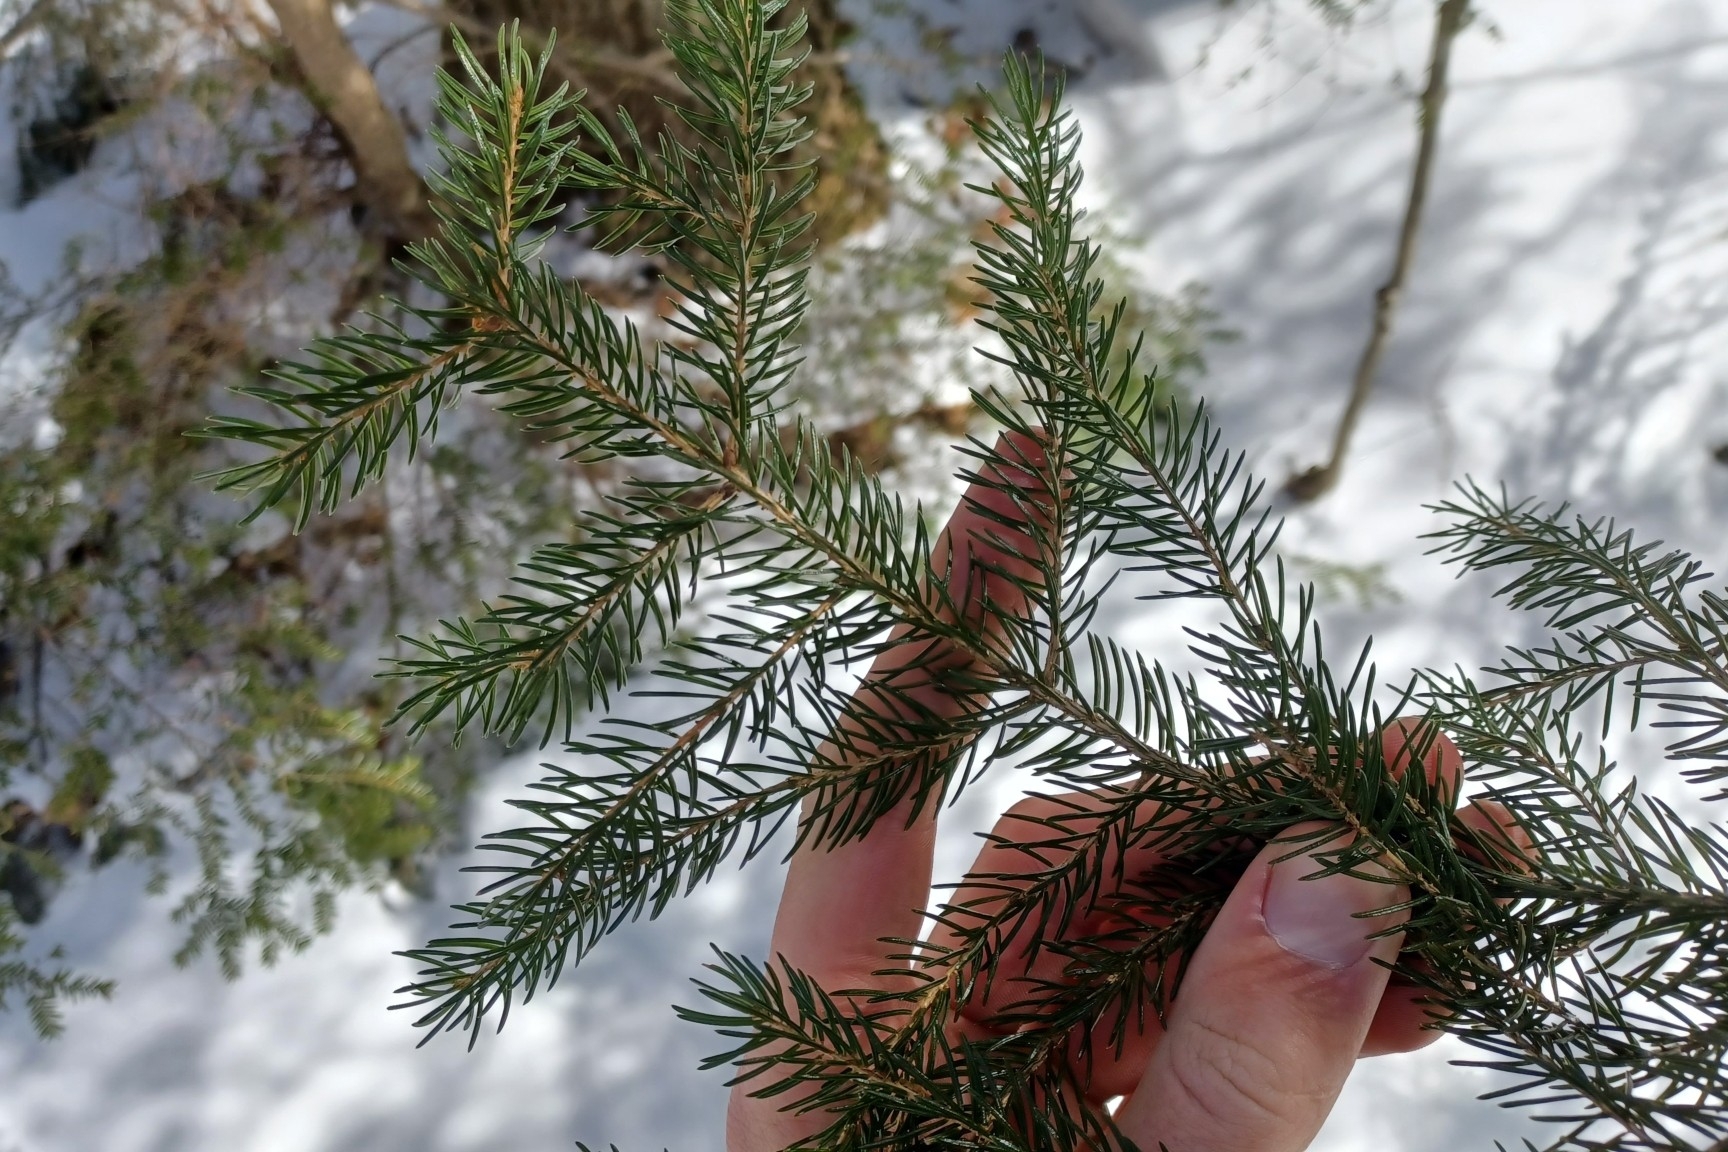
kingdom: Plantae
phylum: Tracheophyta
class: Pinopsida
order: Pinales
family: Pinaceae
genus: Picea
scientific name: Picea rubens
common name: Red spruce
